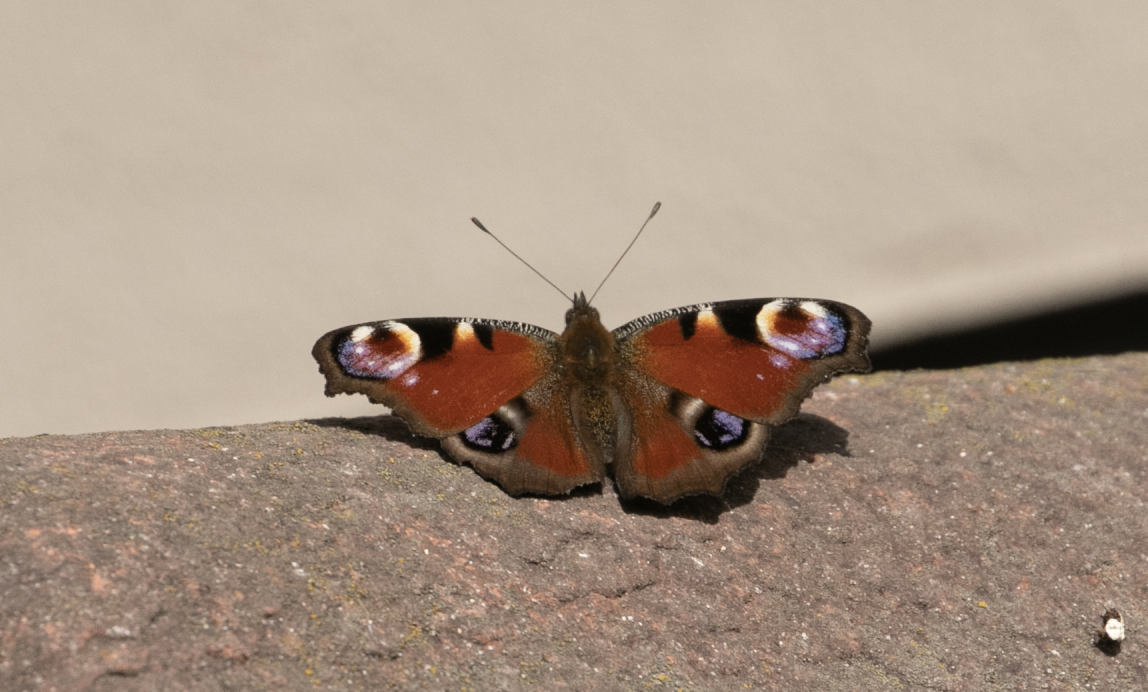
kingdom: Animalia
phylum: Arthropoda
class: Insecta
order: Lepidoptera
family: Nymphalidae
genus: Aglais
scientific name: Aglais io
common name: Peacock
